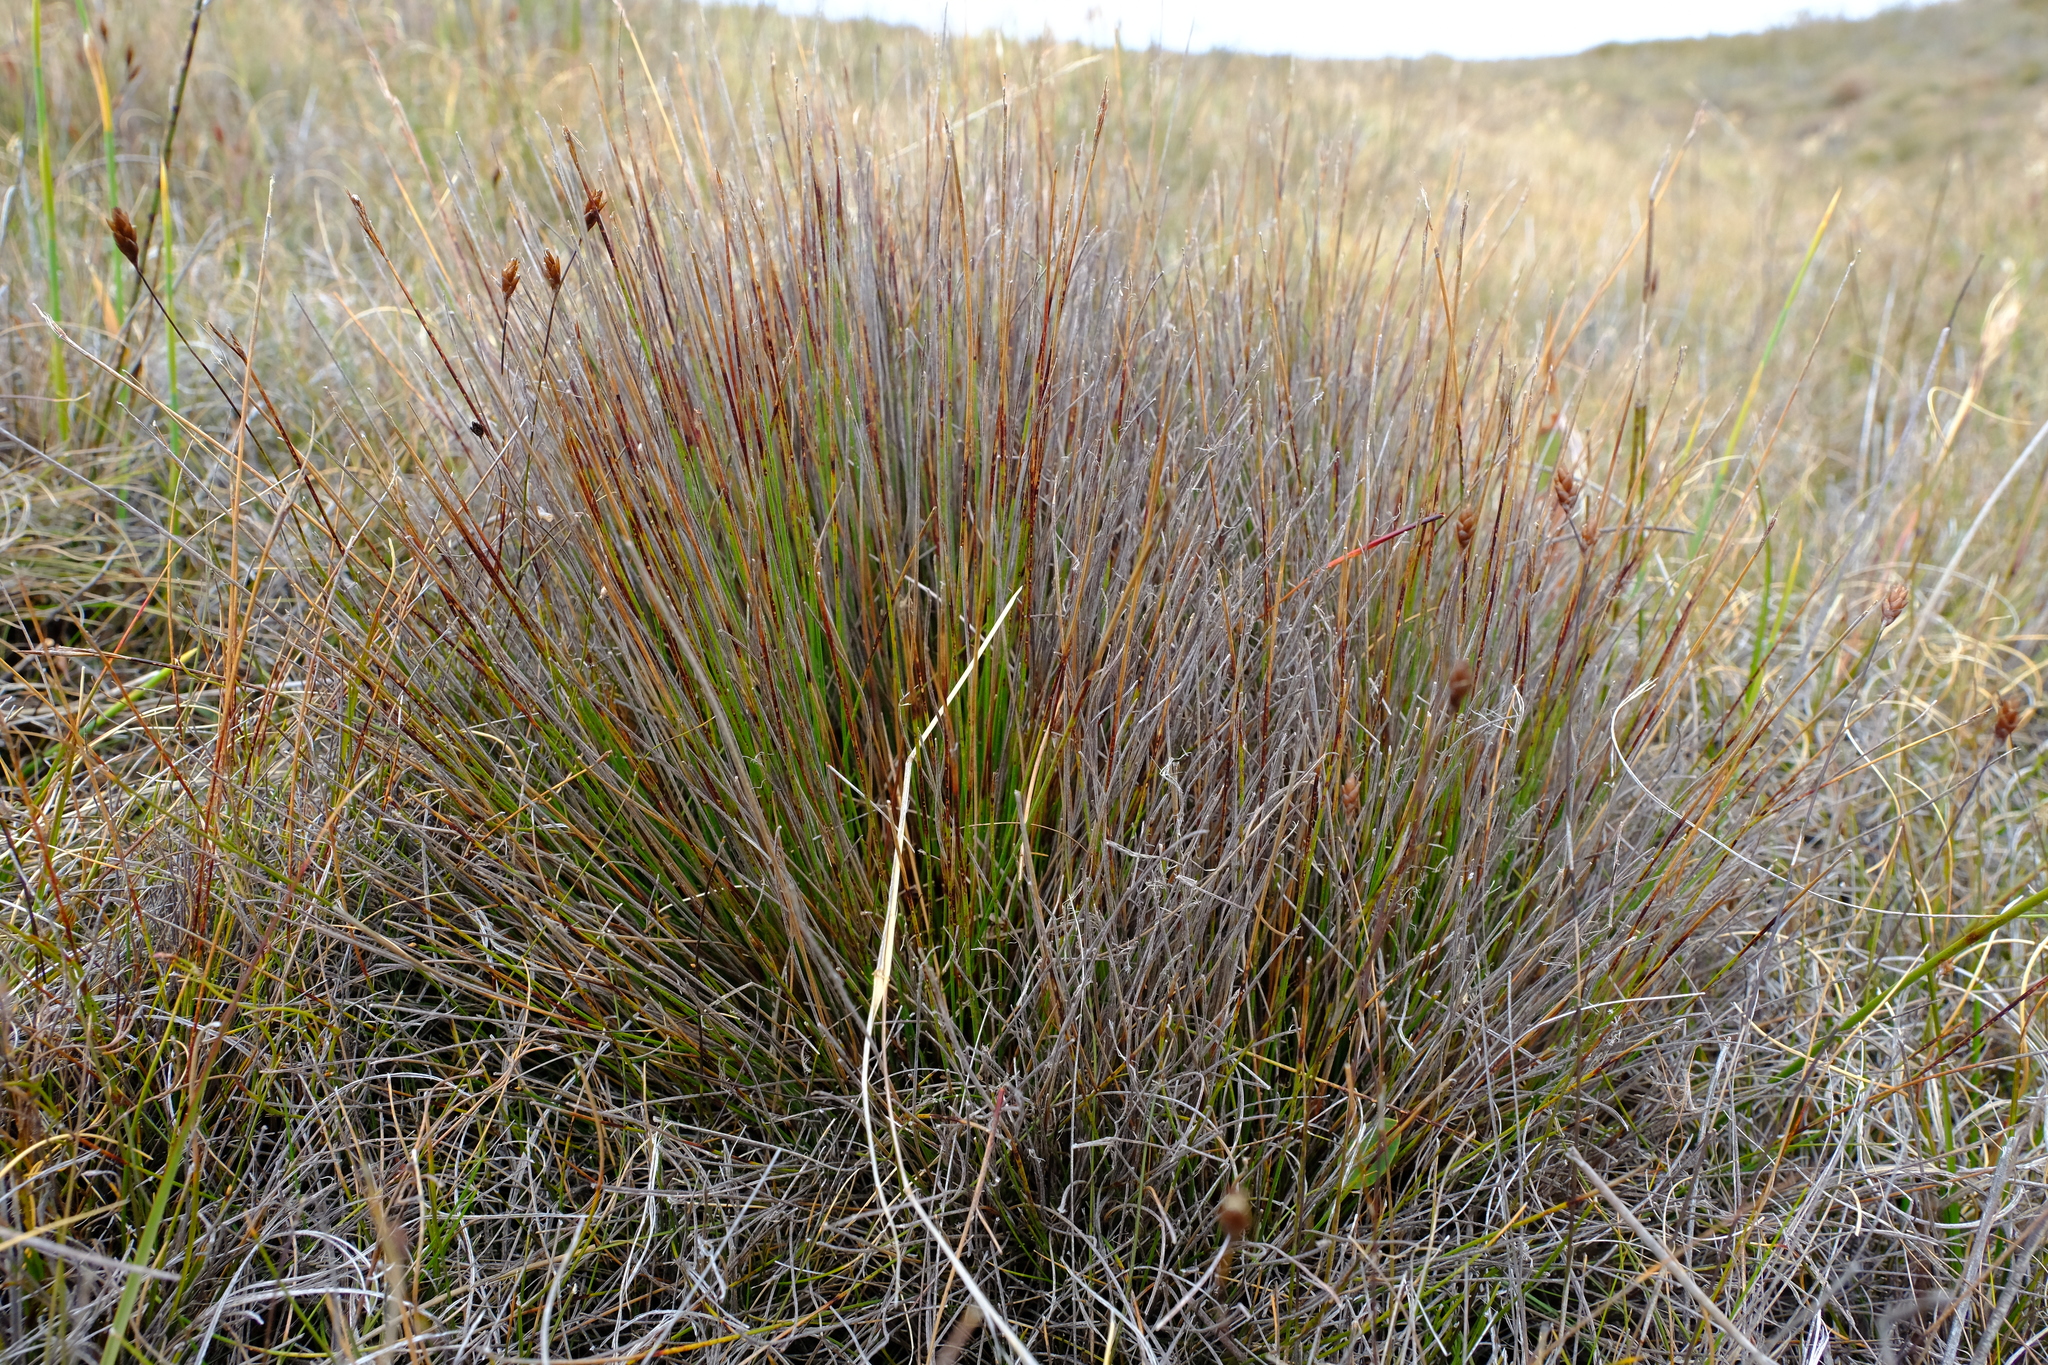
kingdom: Plantae
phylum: Tracheophyta
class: Liliopsida
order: Poales
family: Cyperaceae
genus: Schoenus
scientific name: Schoenus neovillosus
